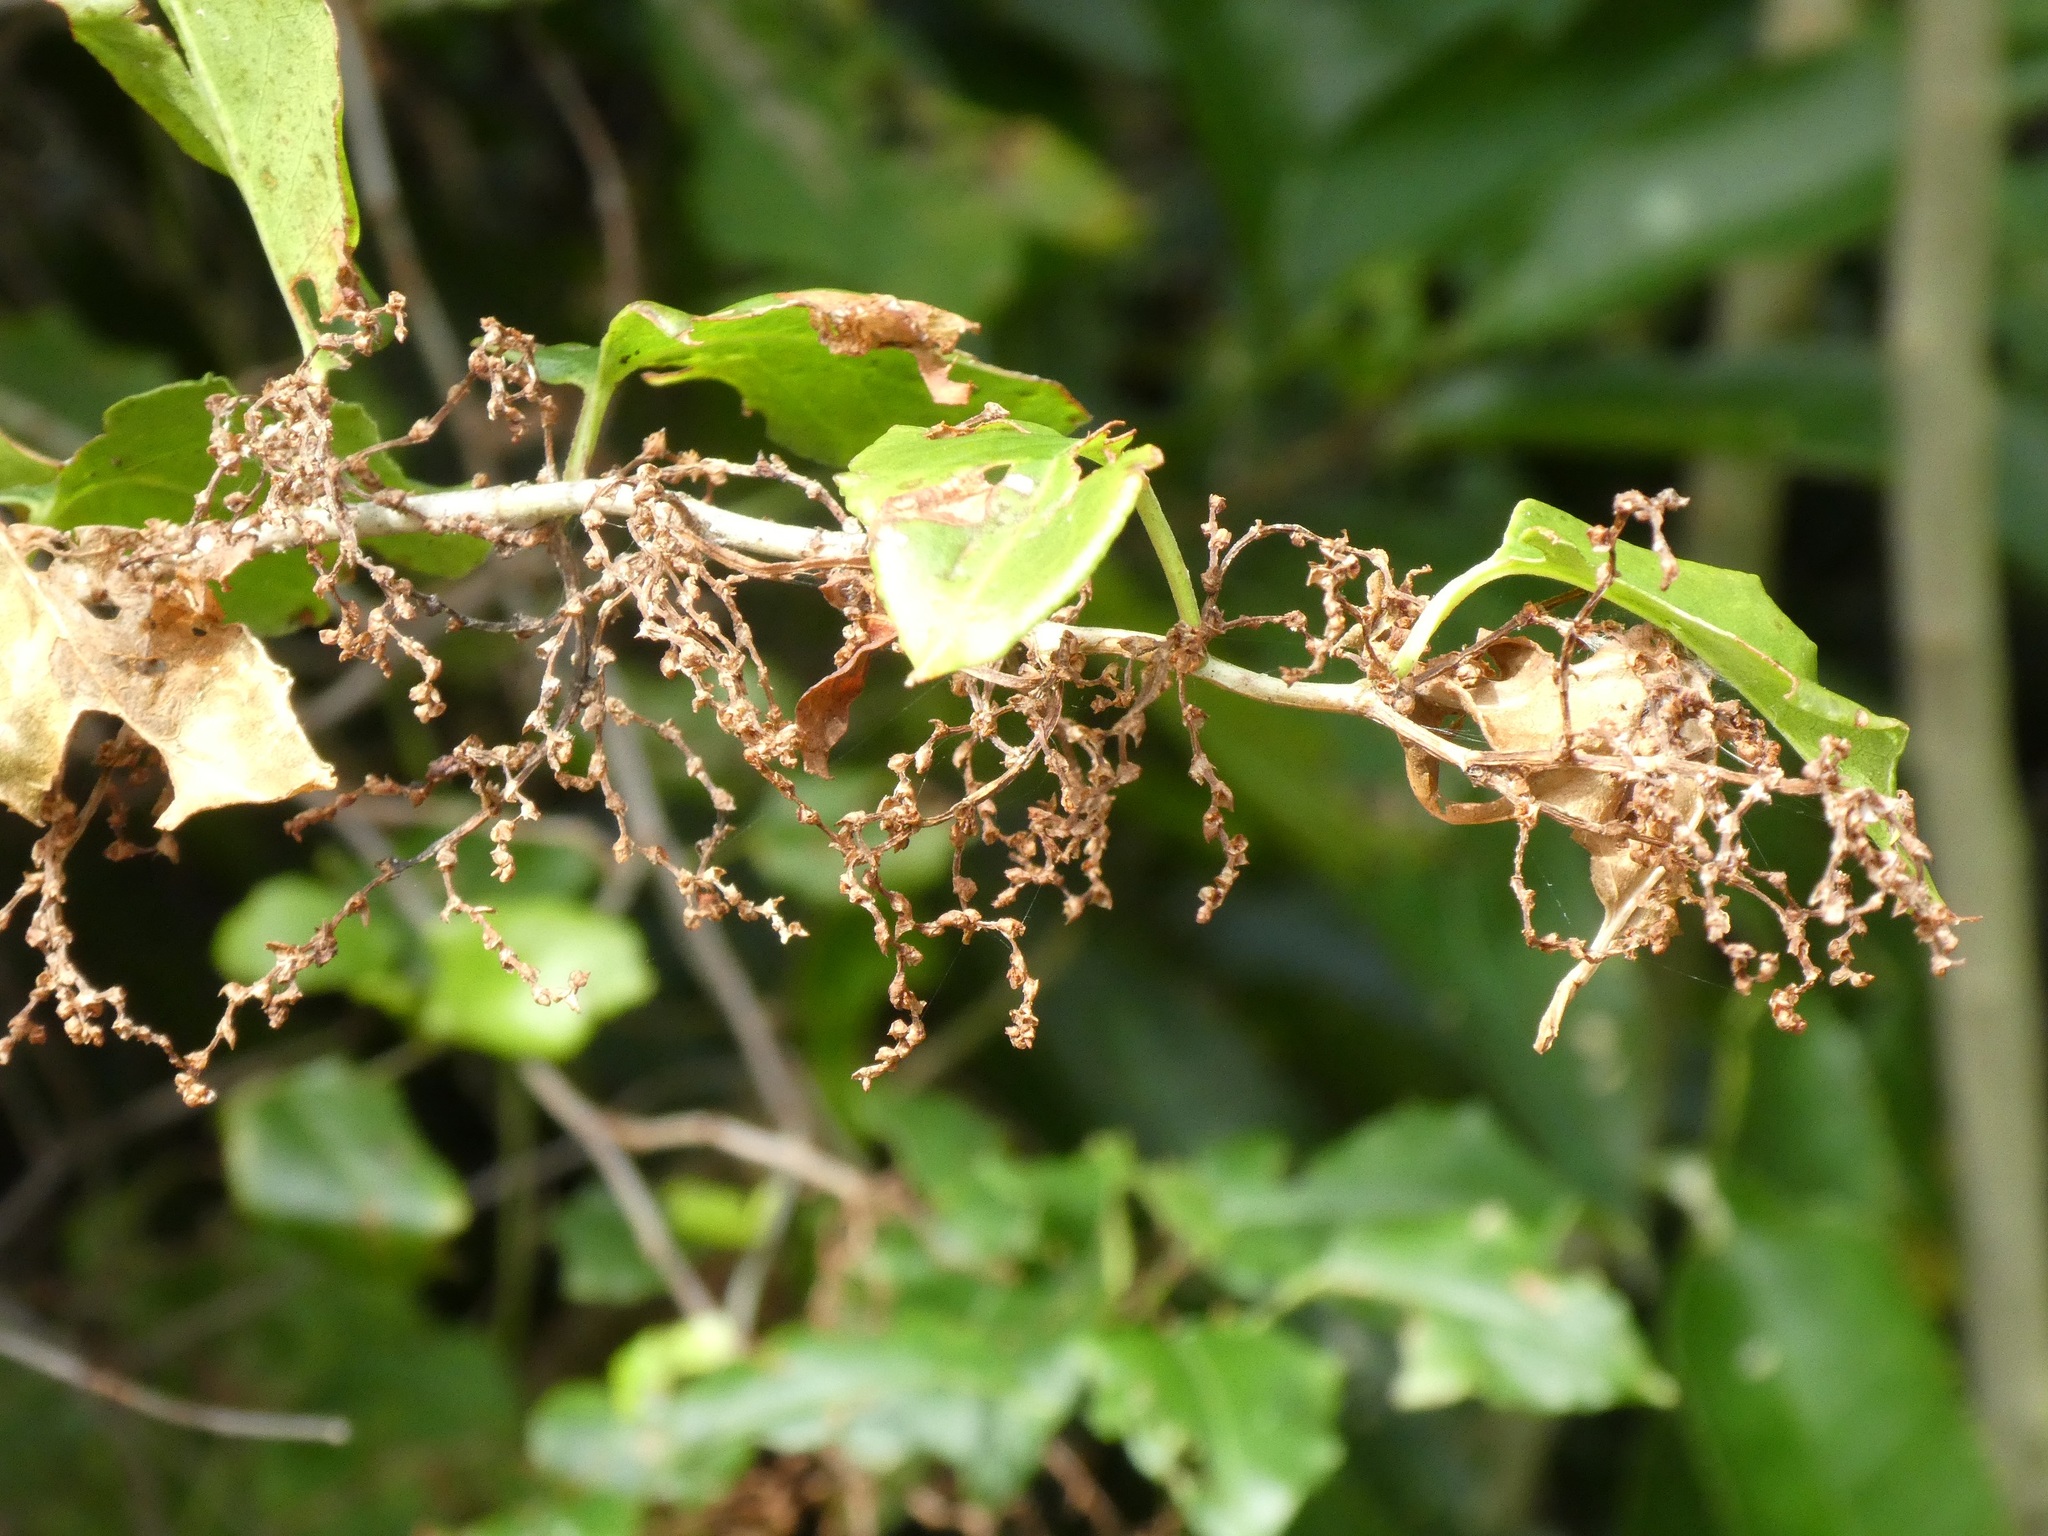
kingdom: Plantae
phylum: Tracheophyta
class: Magnoliopsida
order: Caryophyllales
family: Polygonaceae
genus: Muehlenbeckia
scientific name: Muehlenbeckia australis
